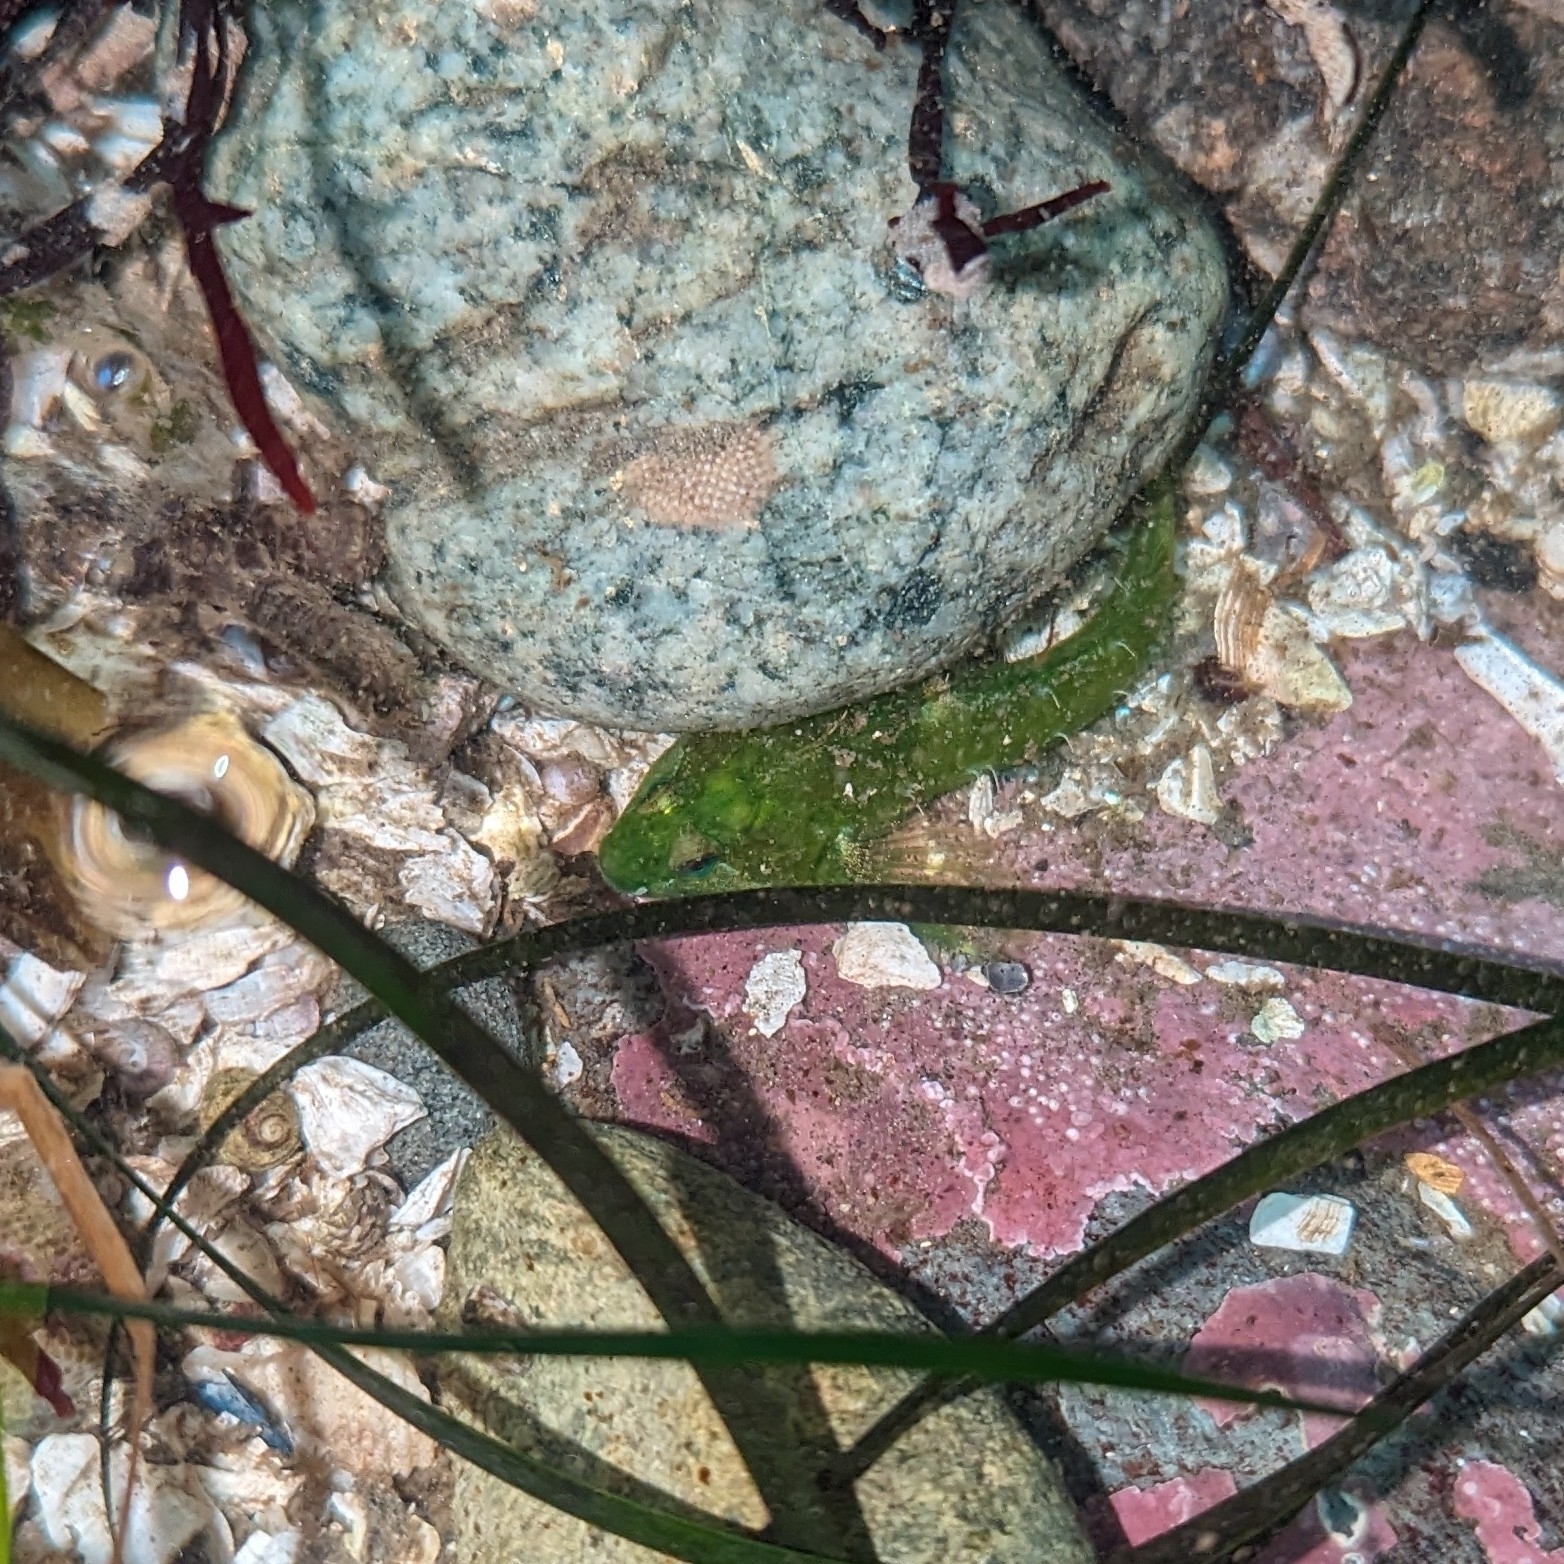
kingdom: Animalia
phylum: Chordata
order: Scorpaeniformes
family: Cottidae
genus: Oligocottus
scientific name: Oligocottus snyderi
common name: Fluffy sculpin
